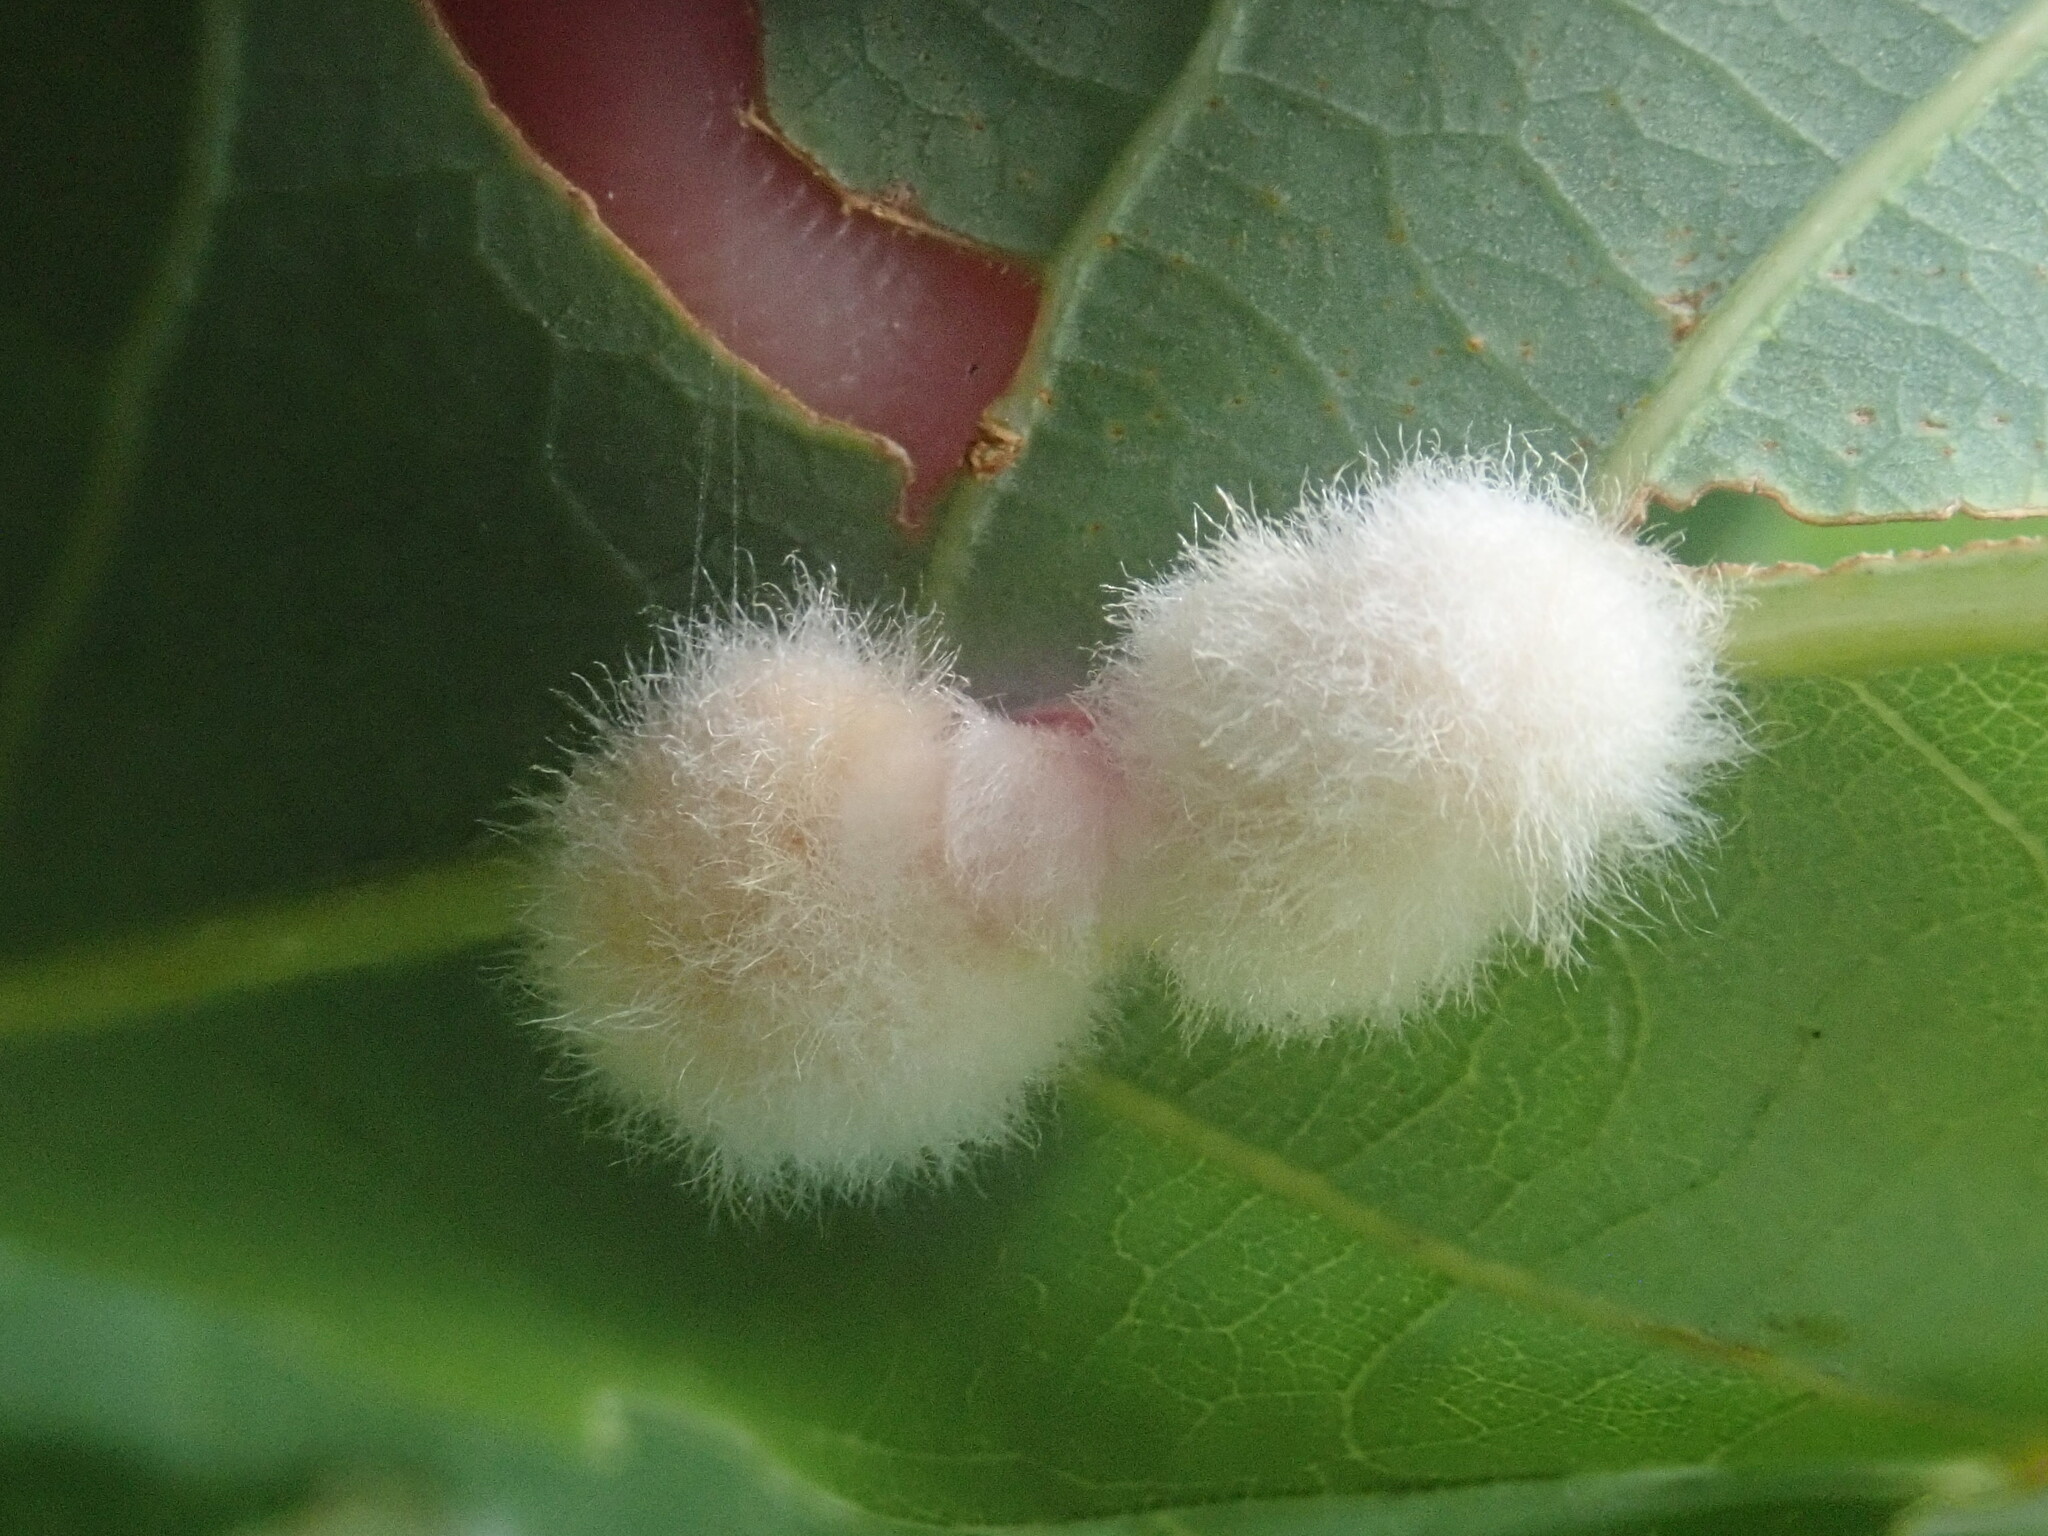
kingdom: Animalia
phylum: Arthropoda
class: Insecta
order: Hymenoptera
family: Cynipidae
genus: Andricus
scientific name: Andricus quercusflocci
